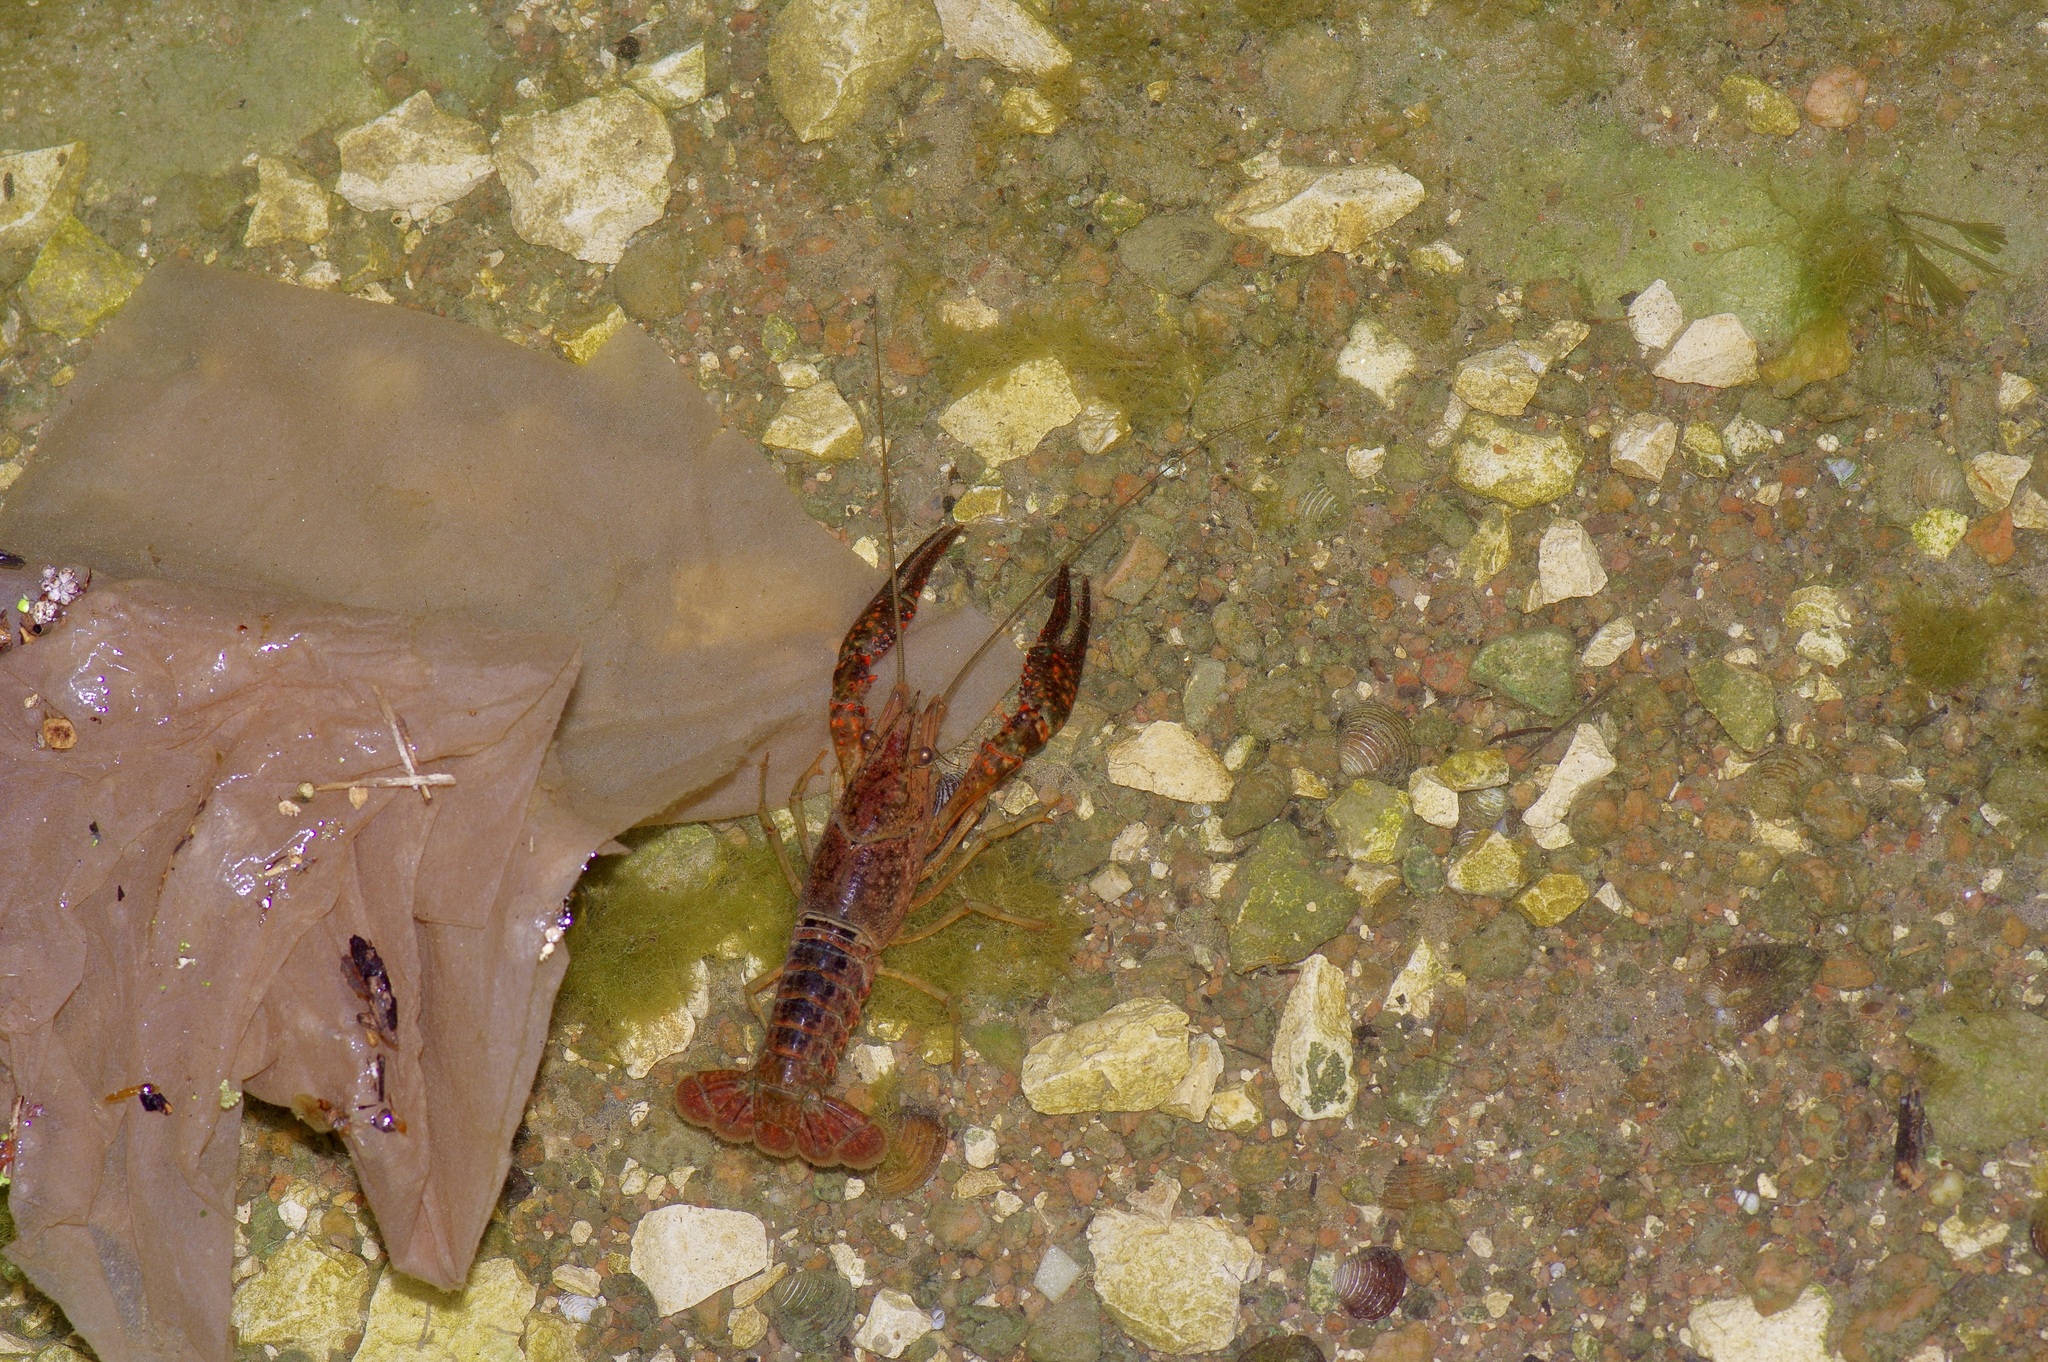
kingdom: Animalia
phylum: Arthropoda
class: Malacostraca
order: Decapoda
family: Cambaridae
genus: Procambarus
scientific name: Procambarus clarkii
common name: Red swamp crayfish
